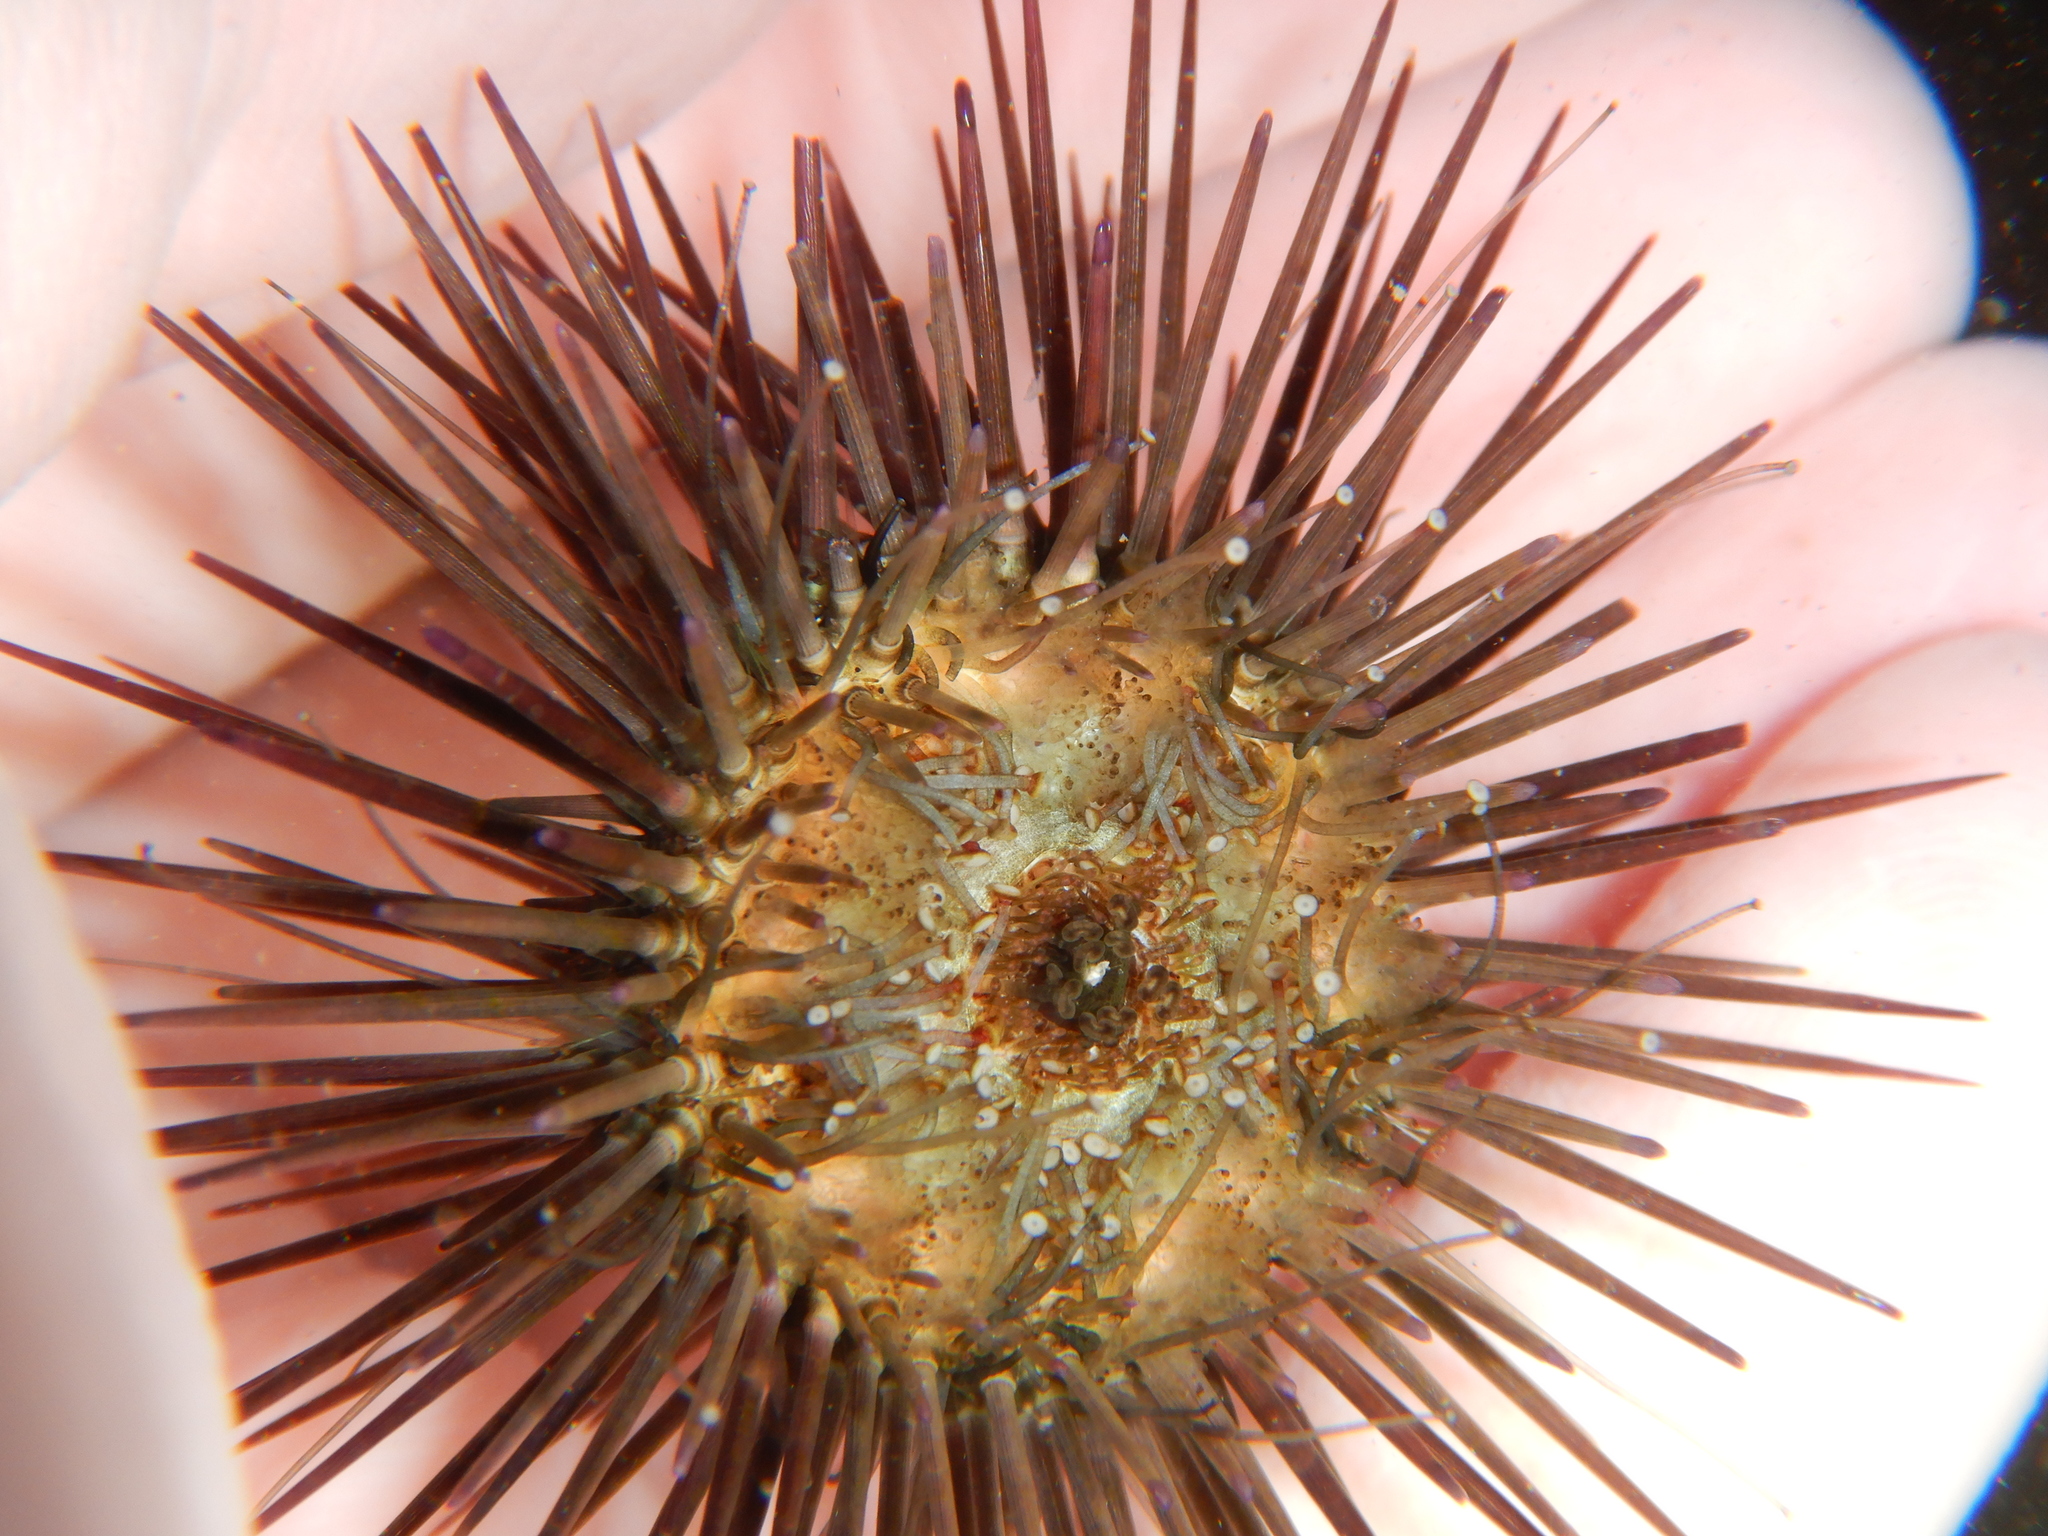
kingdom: Animalia
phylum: Echinodermata
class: Echinoidea
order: Arbacioida
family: Arbaciidae
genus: Arbacia
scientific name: Arbacia lixula
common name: Black sea urchin
